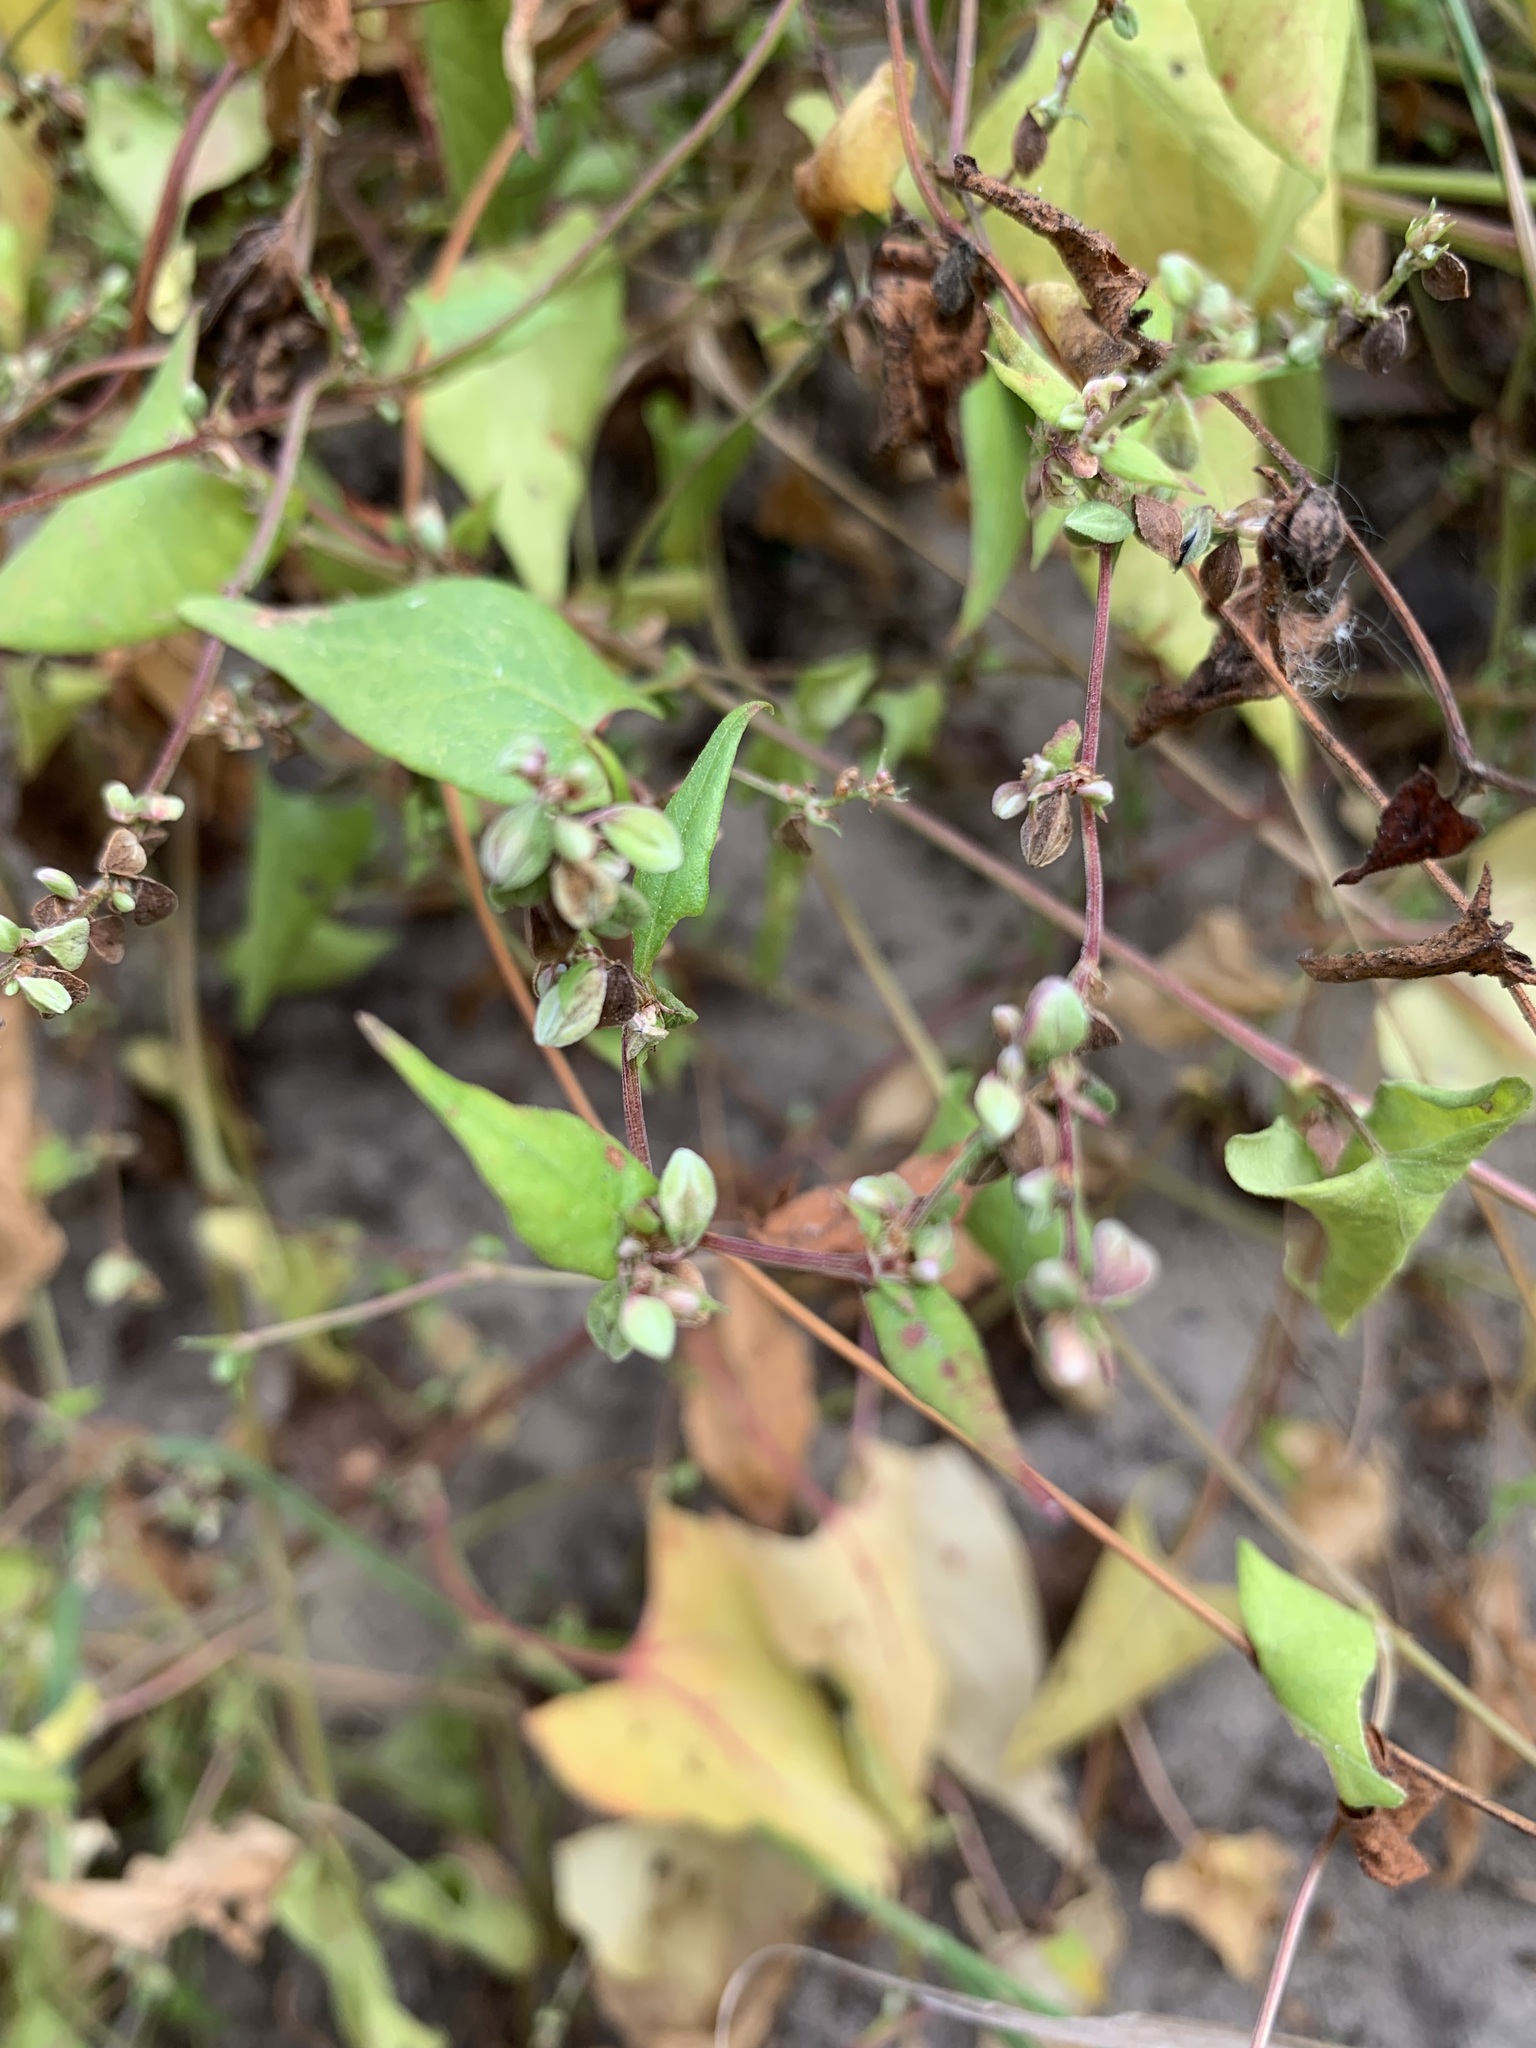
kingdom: Plantae
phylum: Tracheophyta
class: Magnoliopsida
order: Caryophyllales
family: Polygonaceae
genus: Fallopia
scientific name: Fallopia convolvulus
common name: Black bindweed
